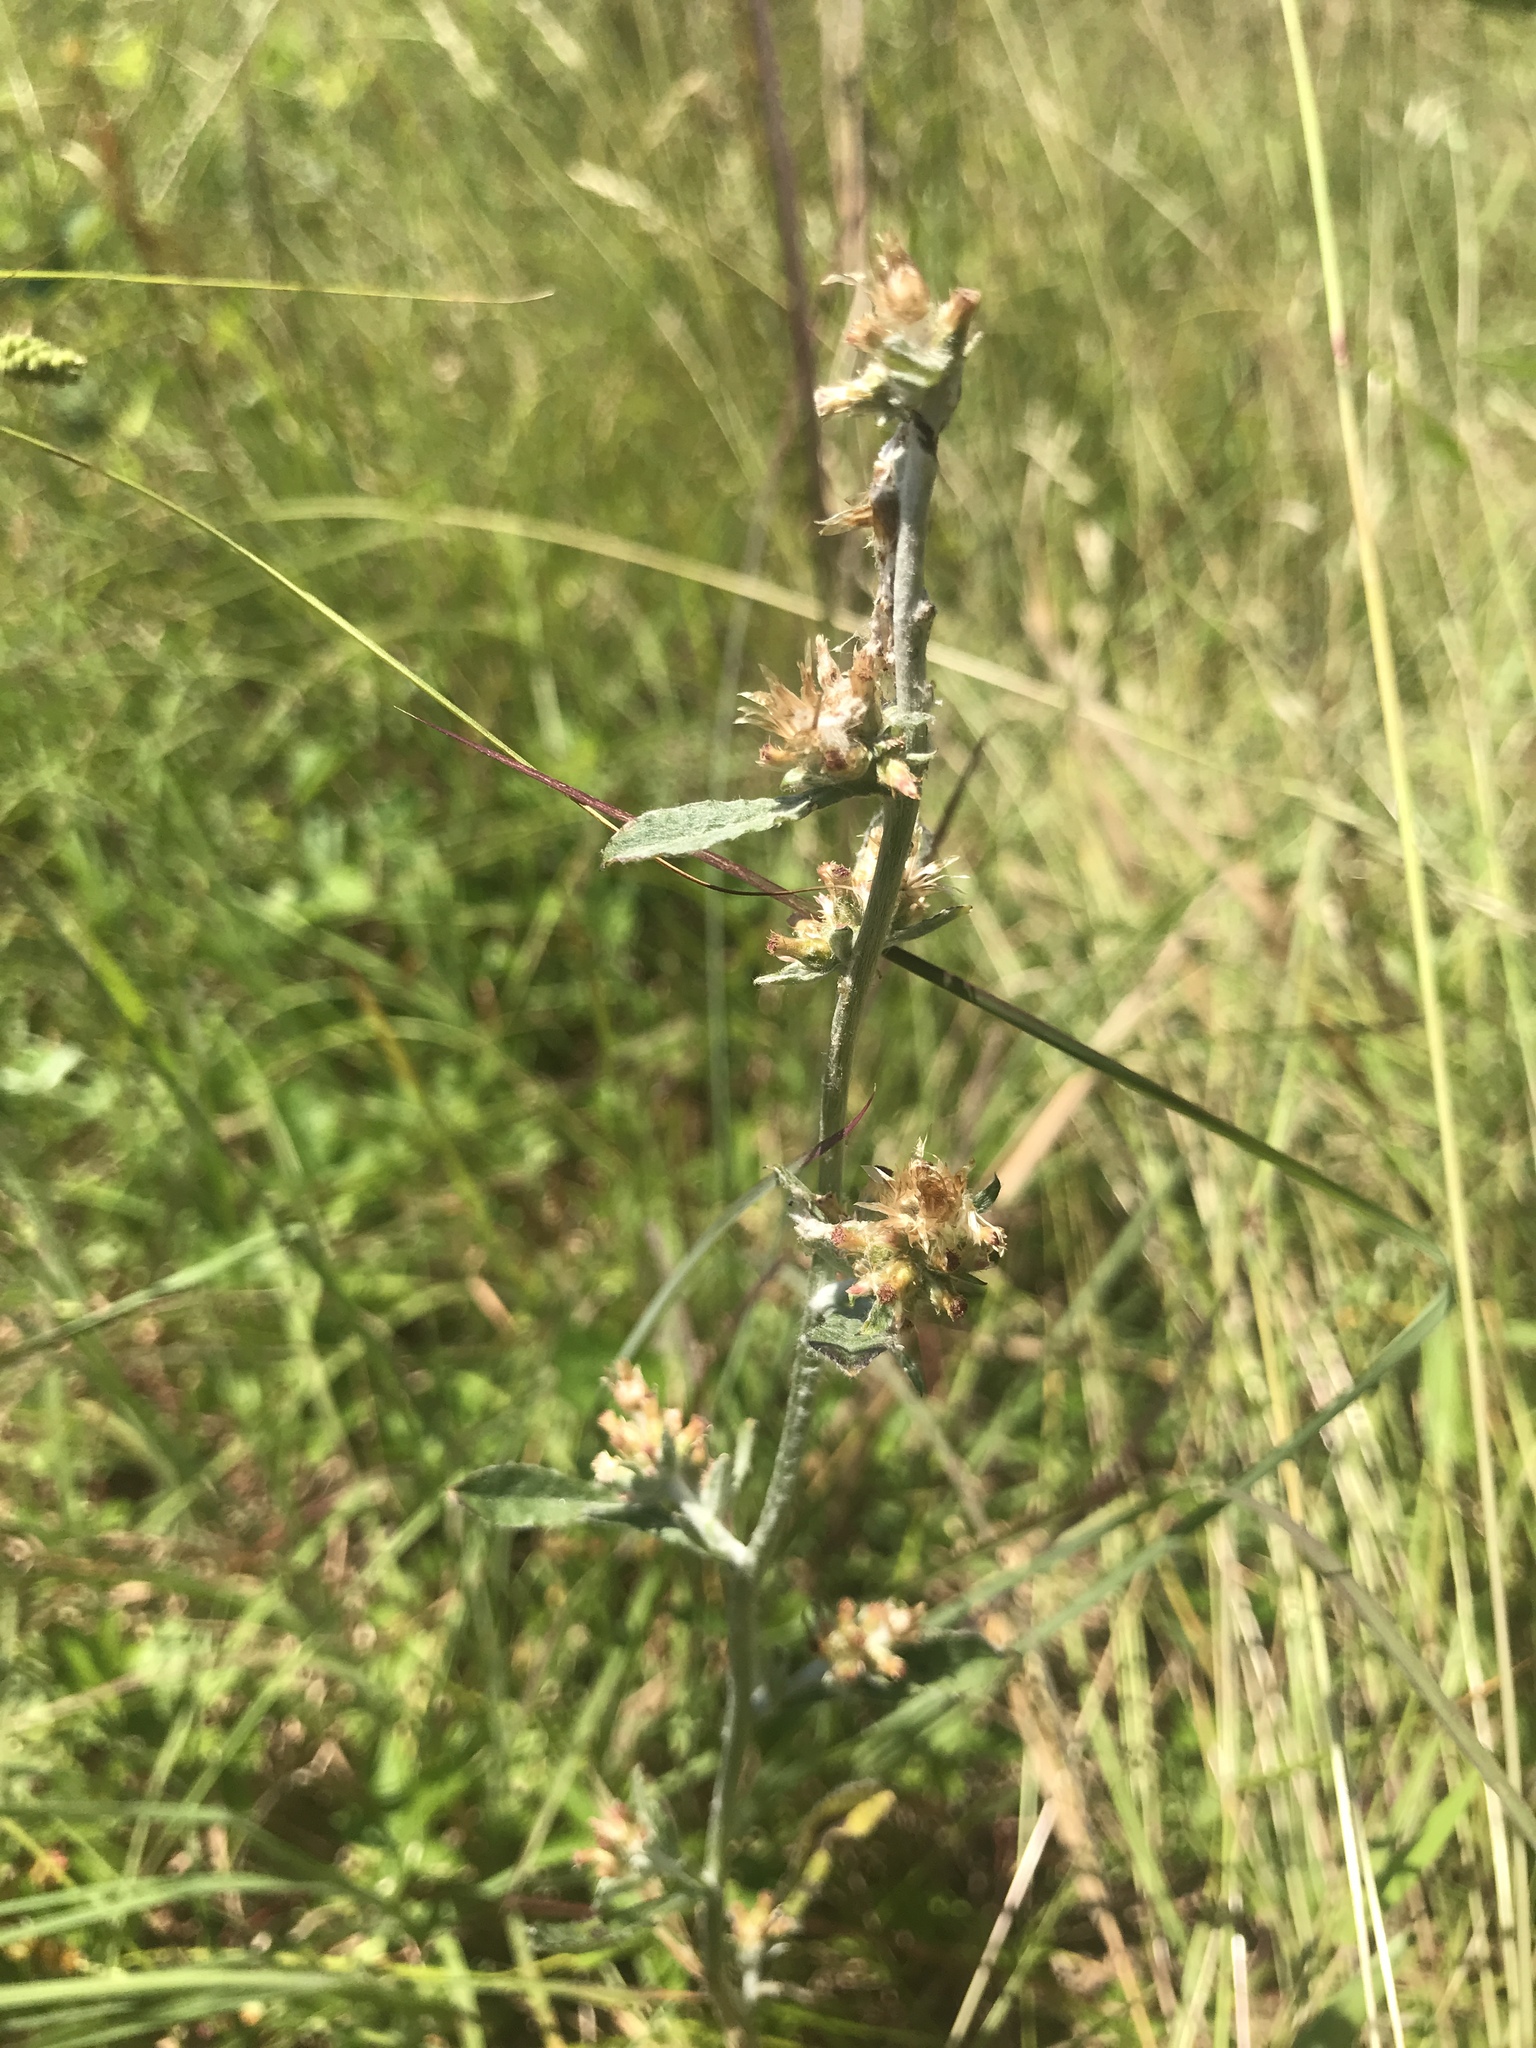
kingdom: Plantae
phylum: Tracheophyta
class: Magnoliopsida
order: Asterales
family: Asteraceae
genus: Gamochaeta
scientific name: Gamochaeta purpurea
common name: Purple cudweed
